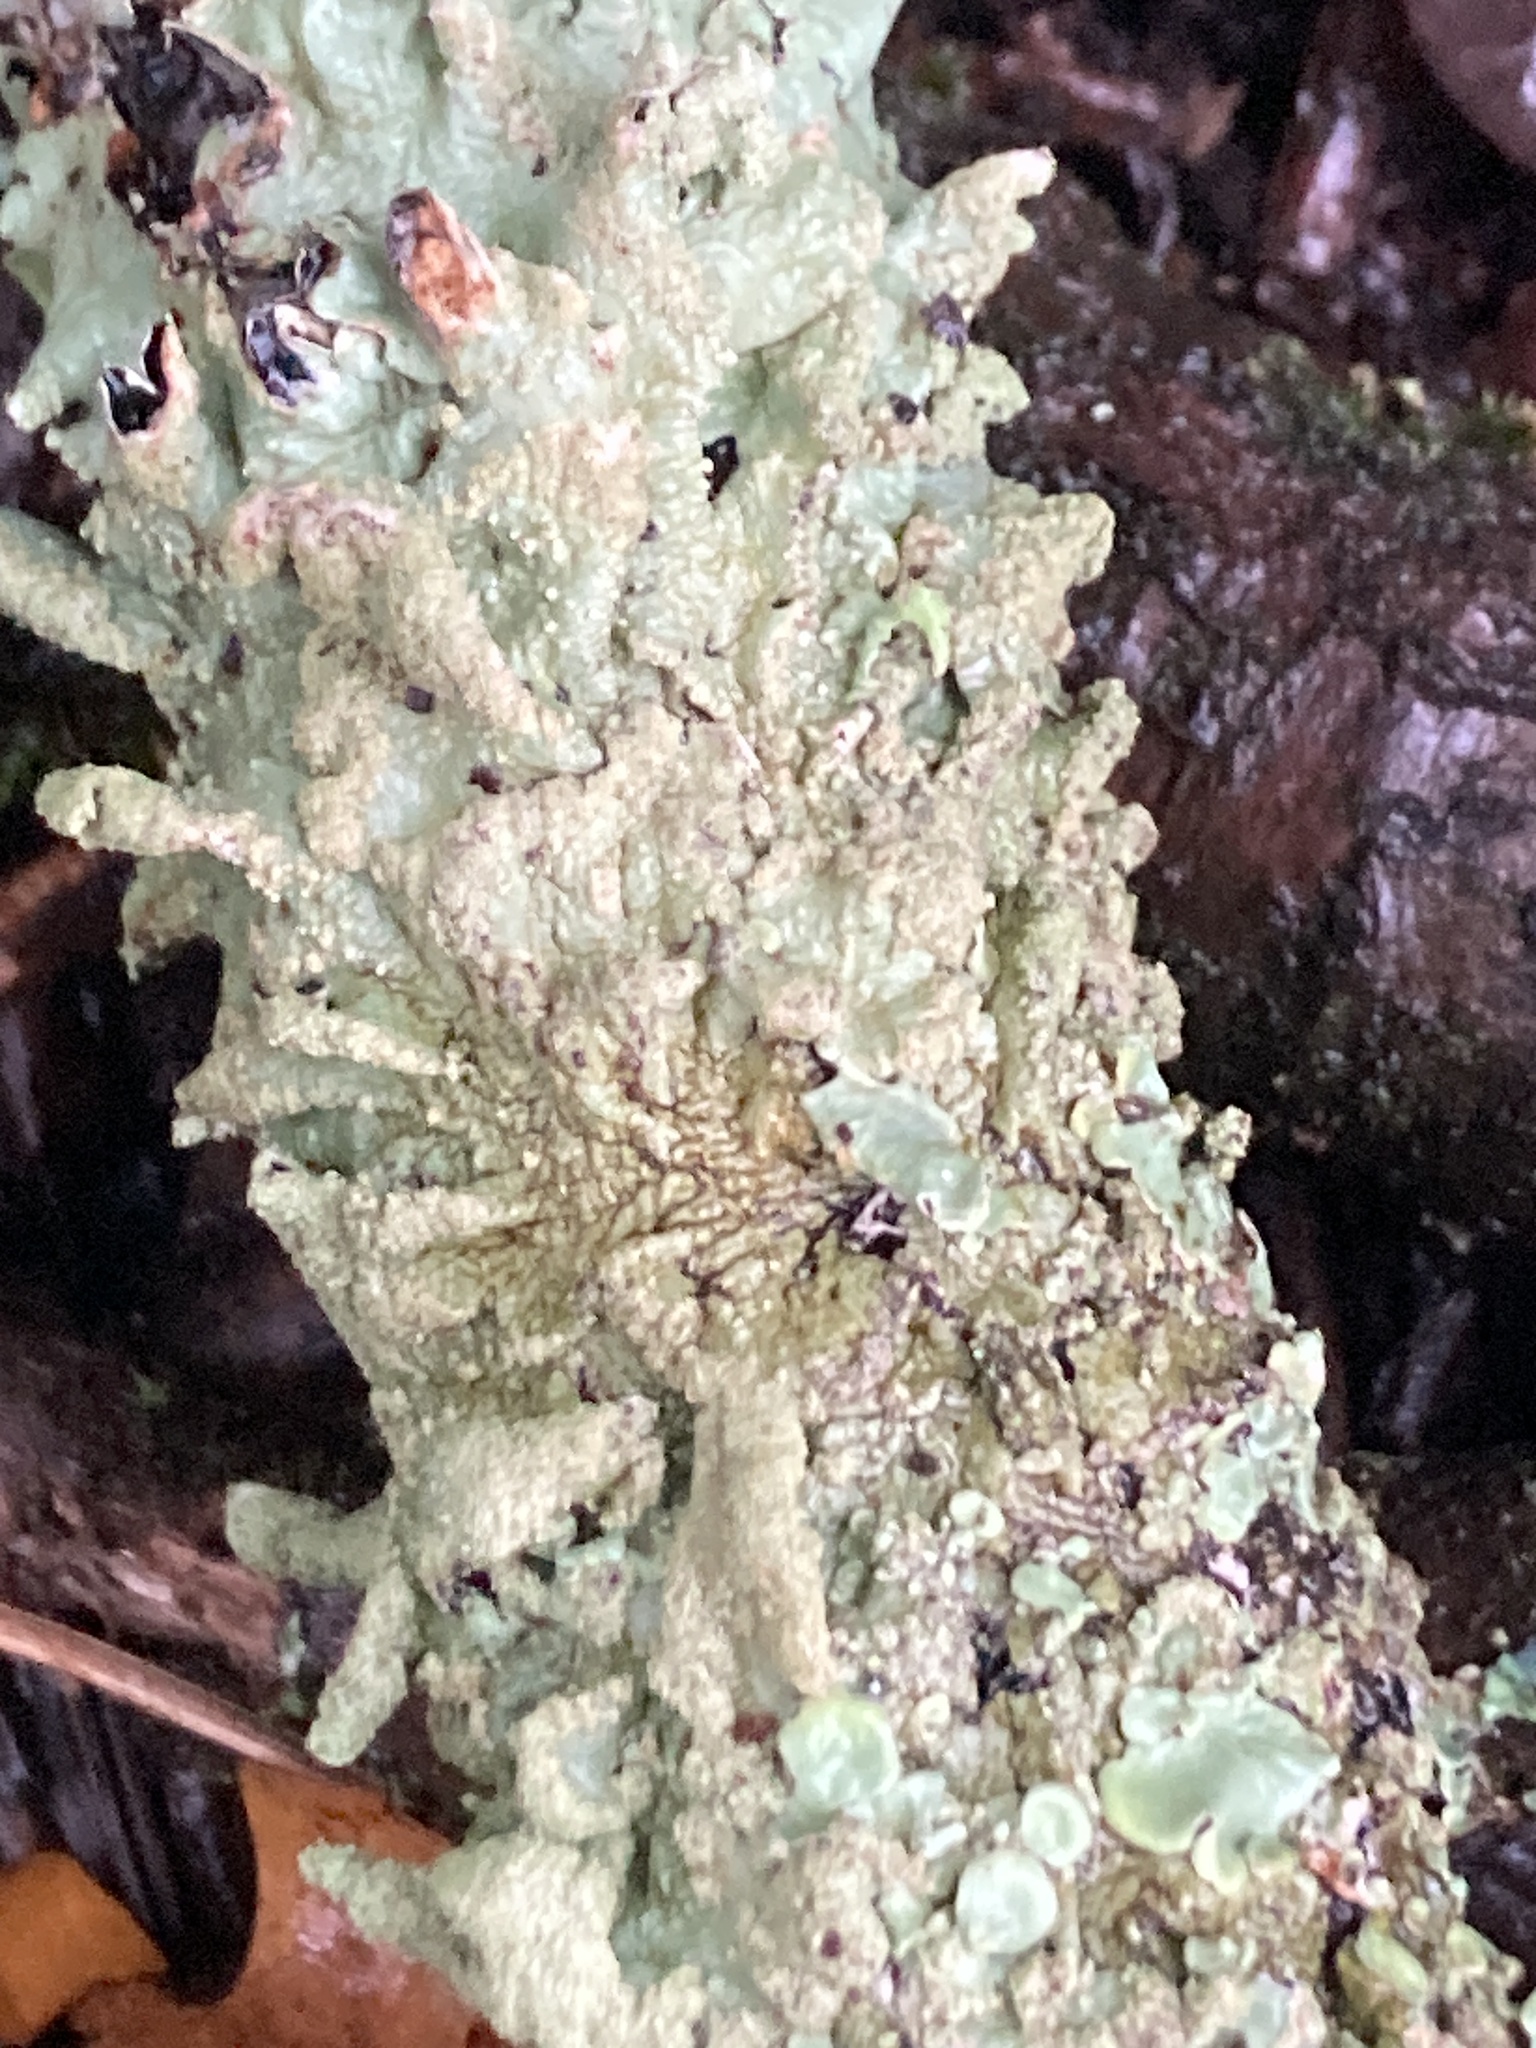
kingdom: Fungi
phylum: Ascomycota
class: Lecanoromycetes
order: Lecanorales
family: Parmeliaceae
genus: Flavoparmelia
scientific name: Flavoparmelia caperata
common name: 40-mile per hour lichen
